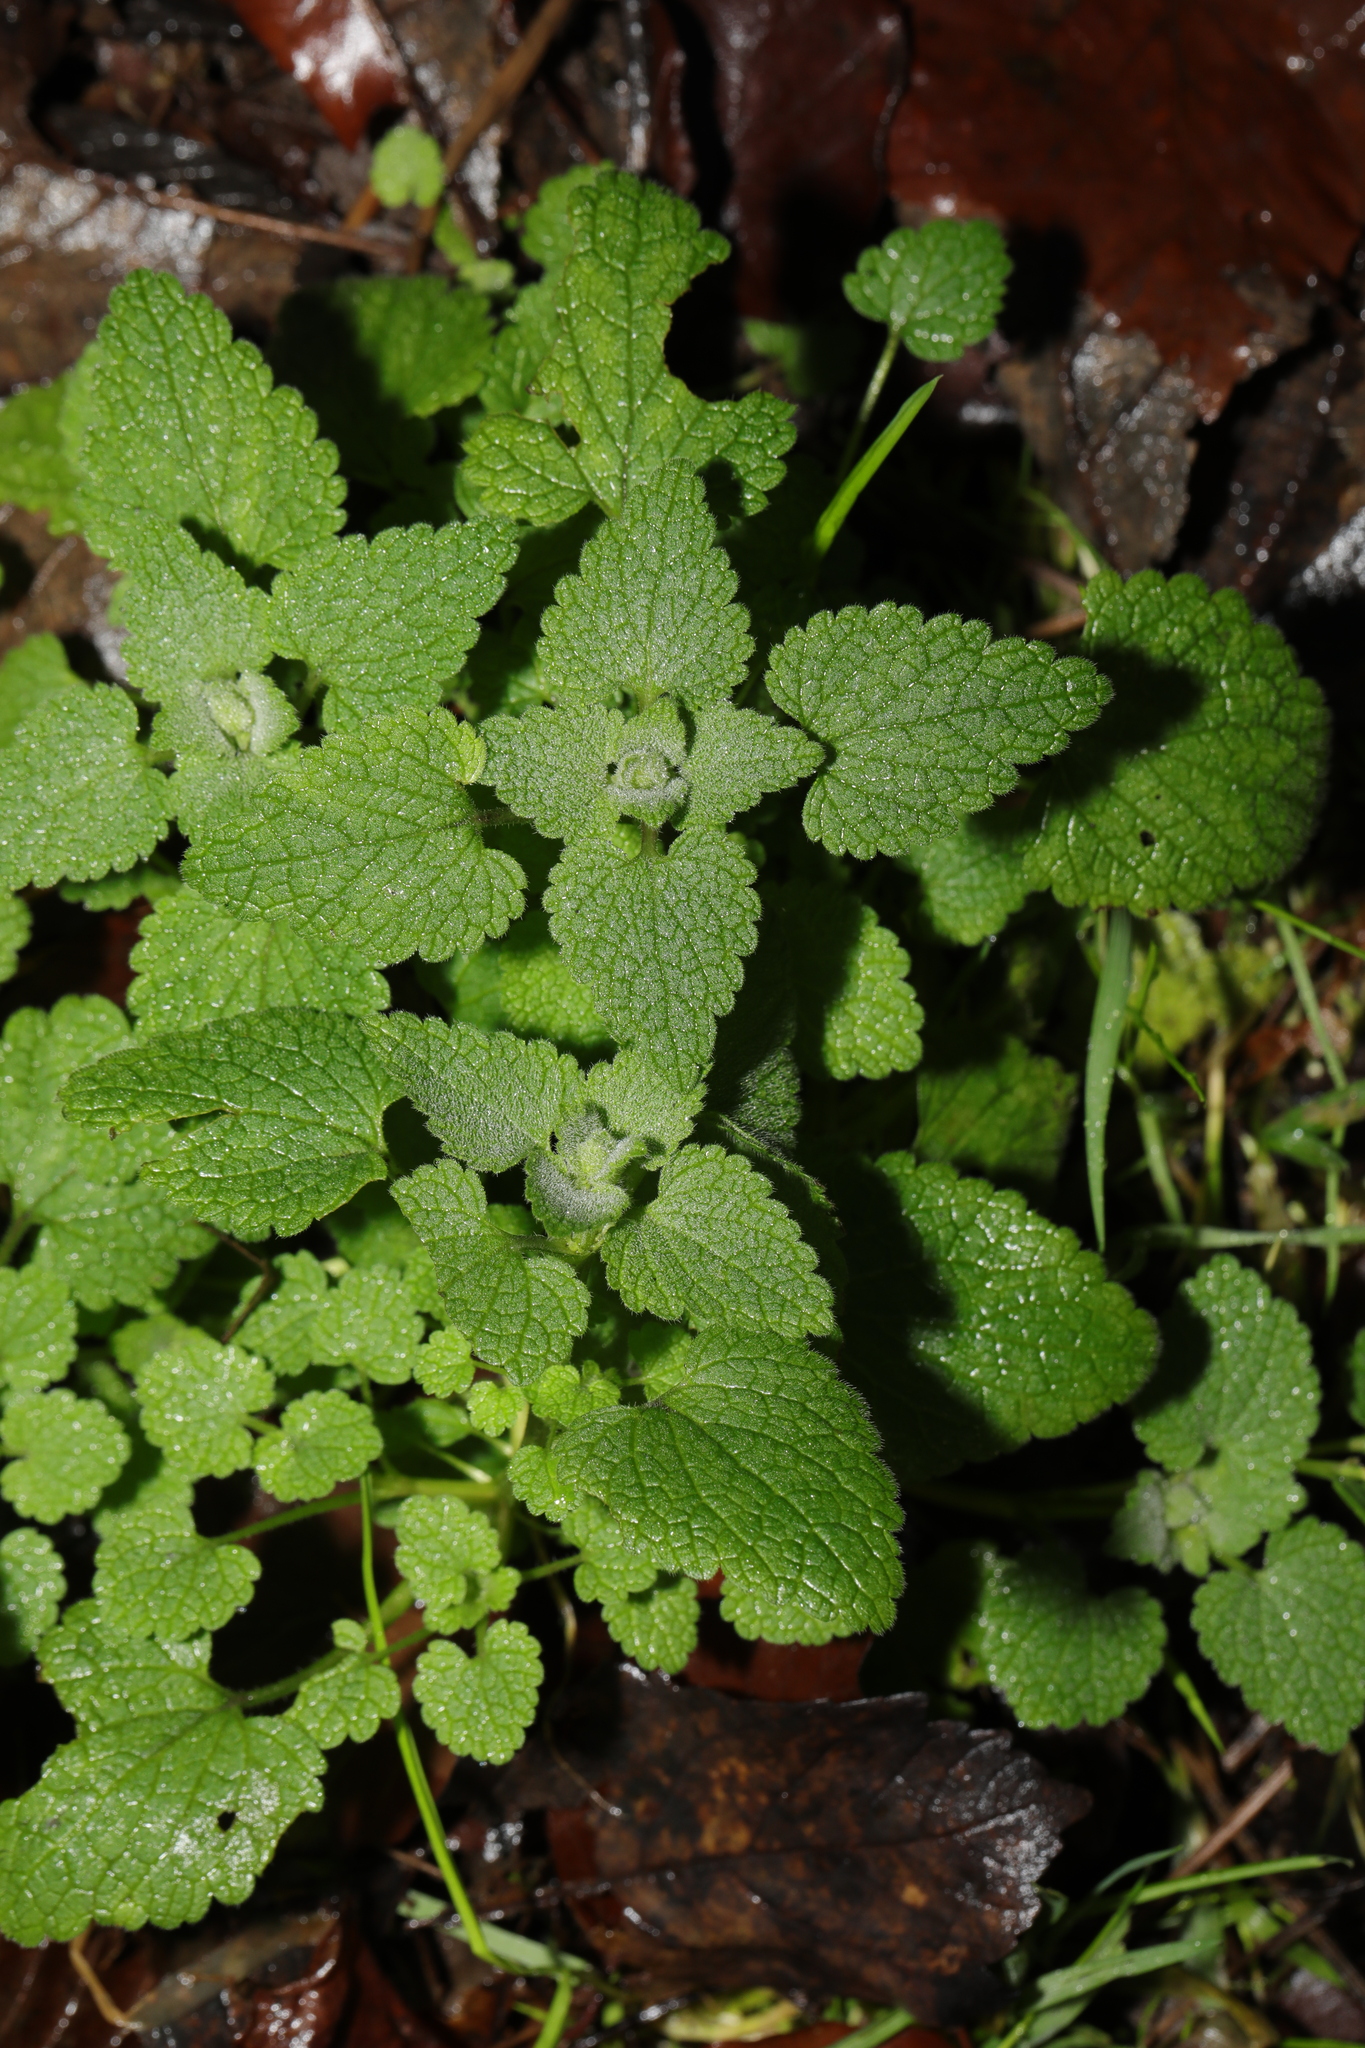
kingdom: Plantae
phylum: Tracheophyta
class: Magnoliopsida
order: Lamiales
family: Lamiaceae
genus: Lamium
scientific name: Lamium purpureum
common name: Red dead-nettle
